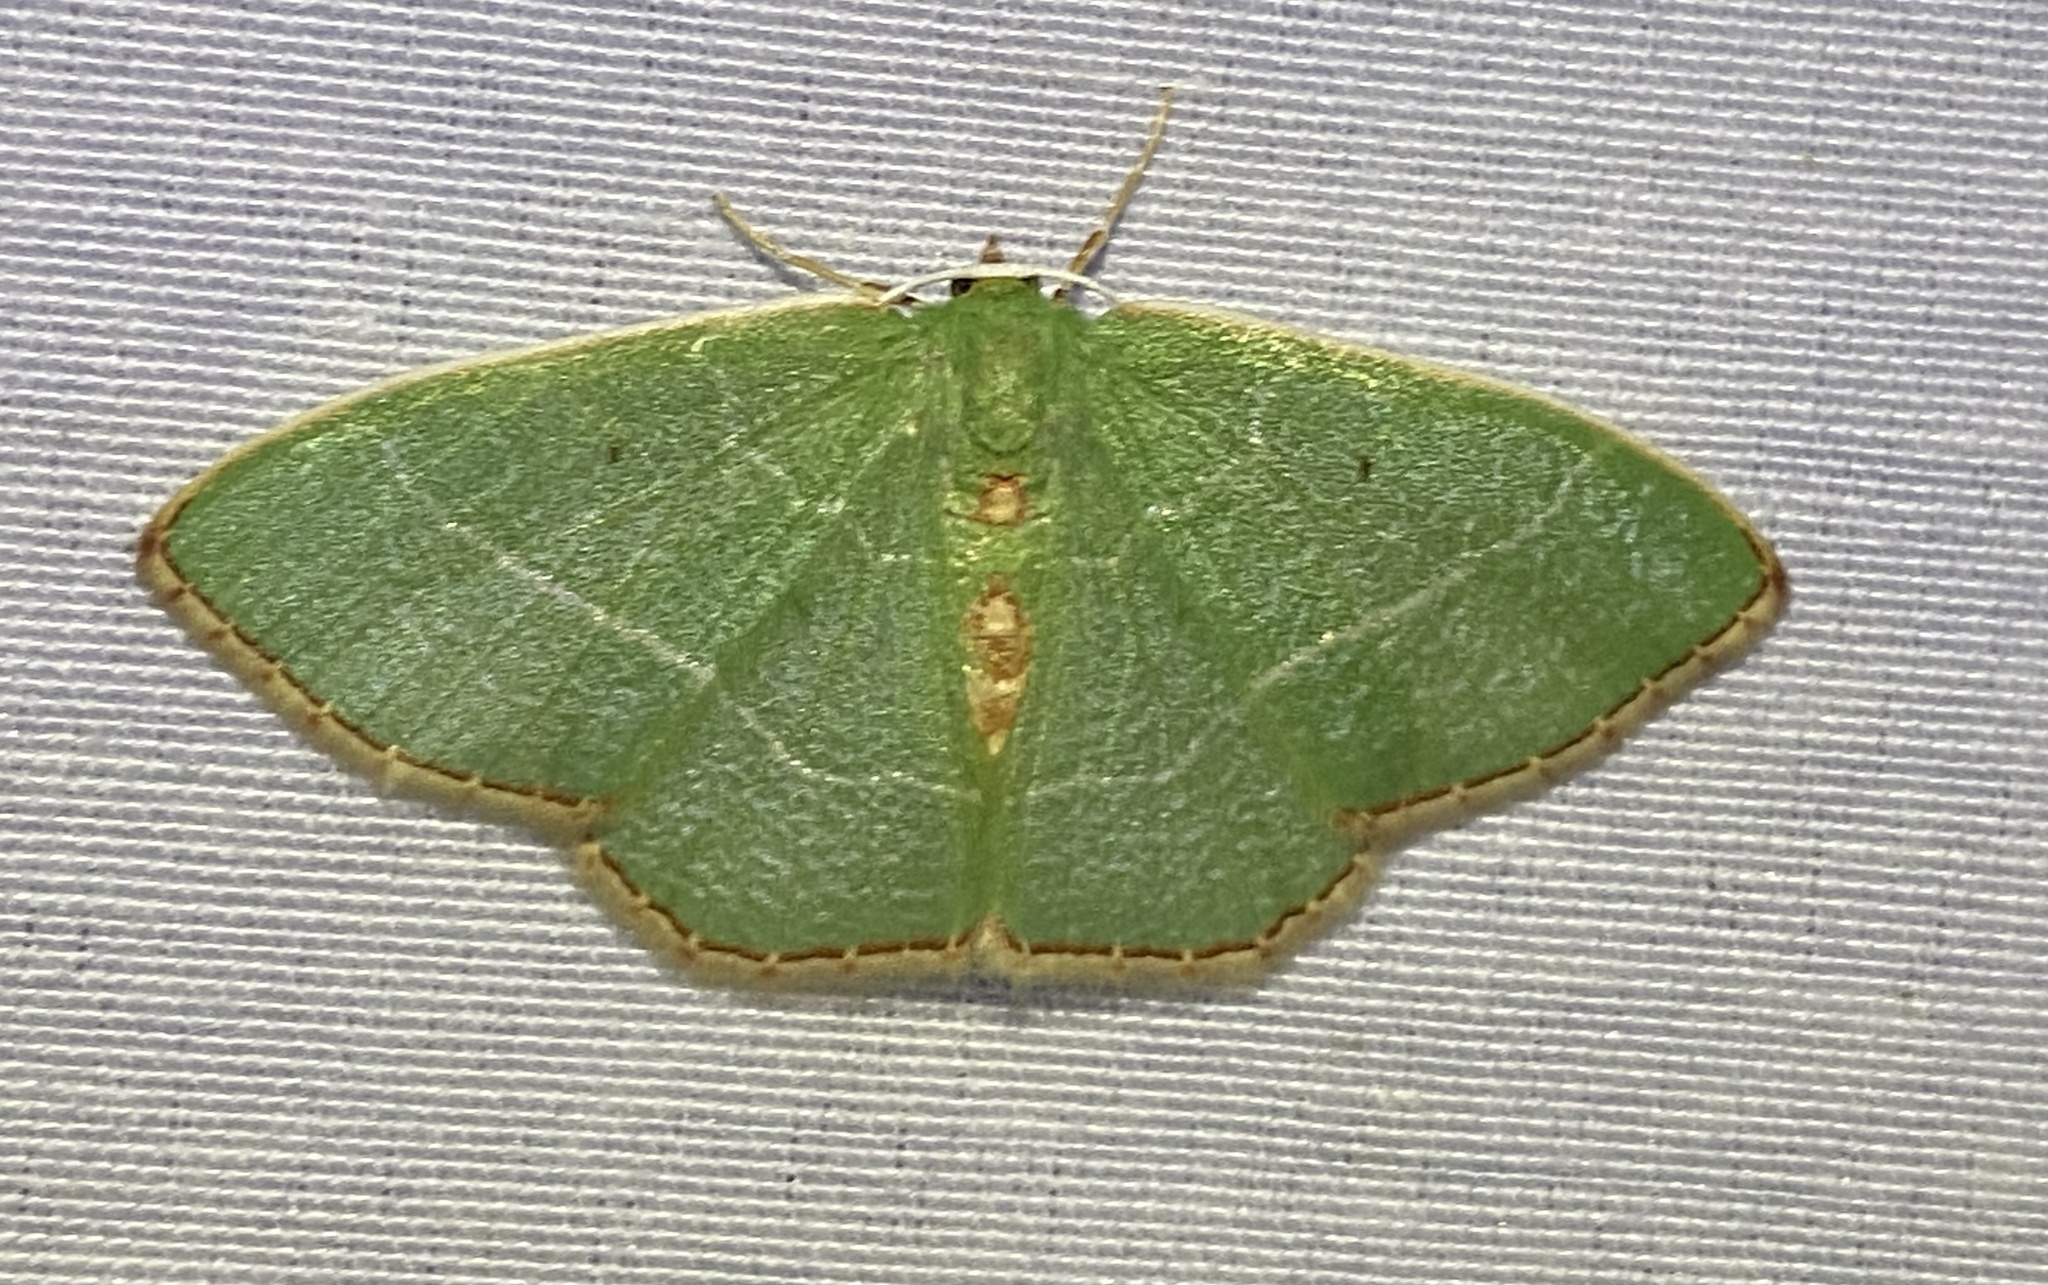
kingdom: Animalia
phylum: Arthropoda
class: Insecta
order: Lepidoptera
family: Geometridae
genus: Nemoria
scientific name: Nemoria bistriaria
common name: Red-fringed emerald
